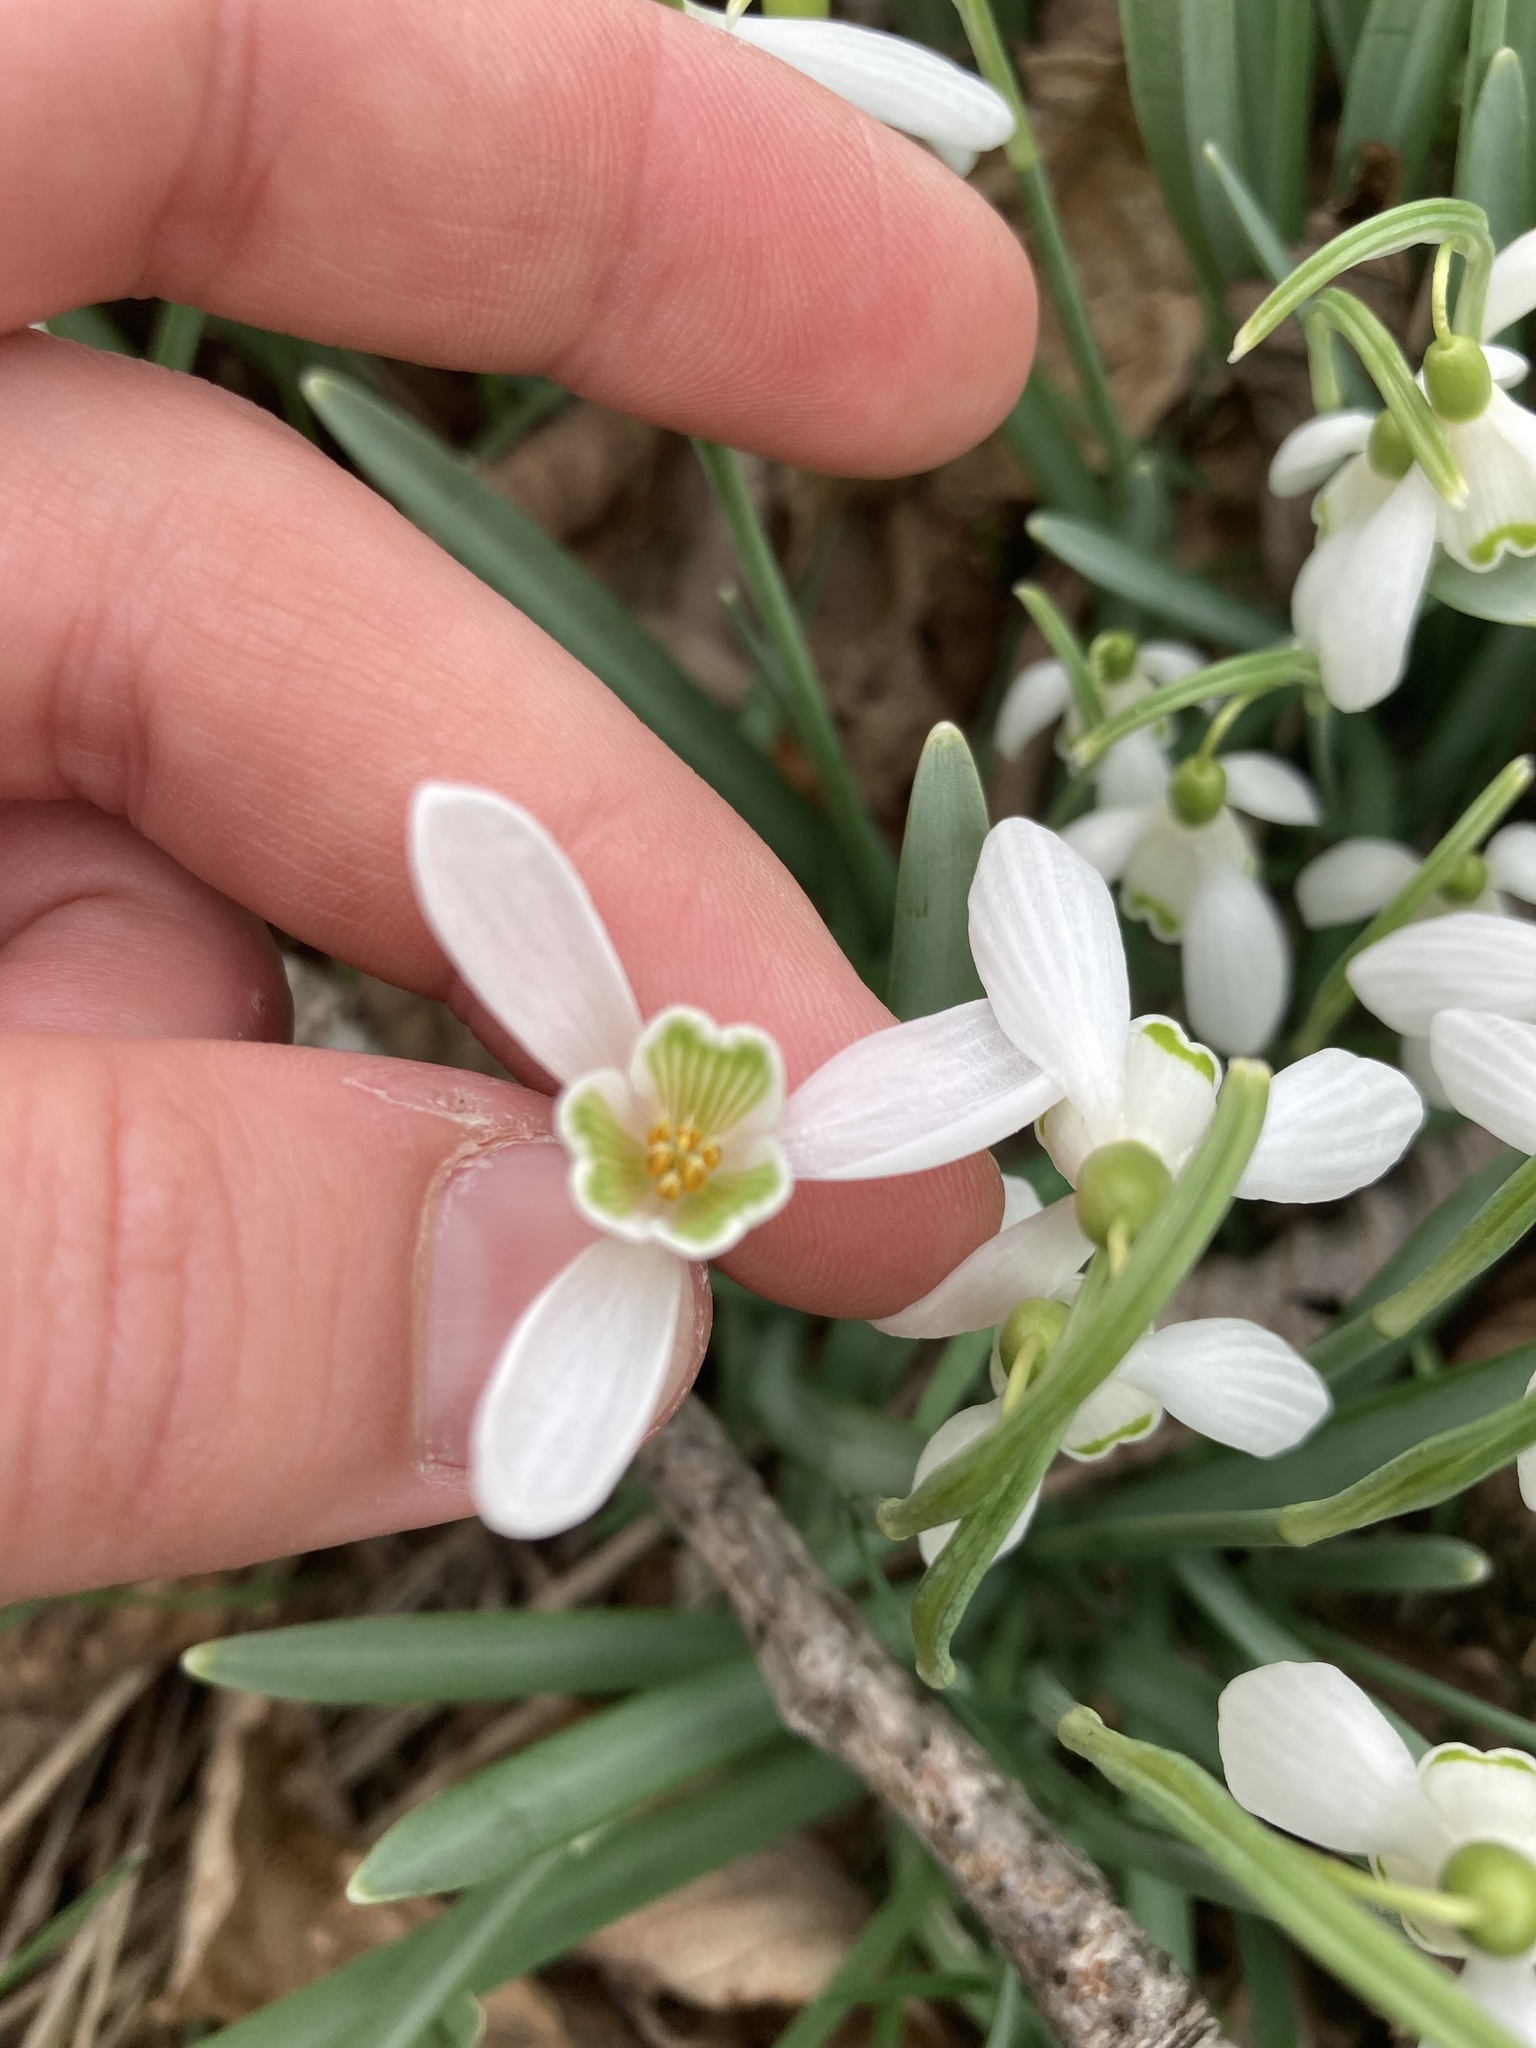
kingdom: Plantae
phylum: Tracheophyta
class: Liliopsida
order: Asparagales
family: Amaryllidaceae
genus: Galanthus
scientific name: Galanthus nivalis
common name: Snowdrop
